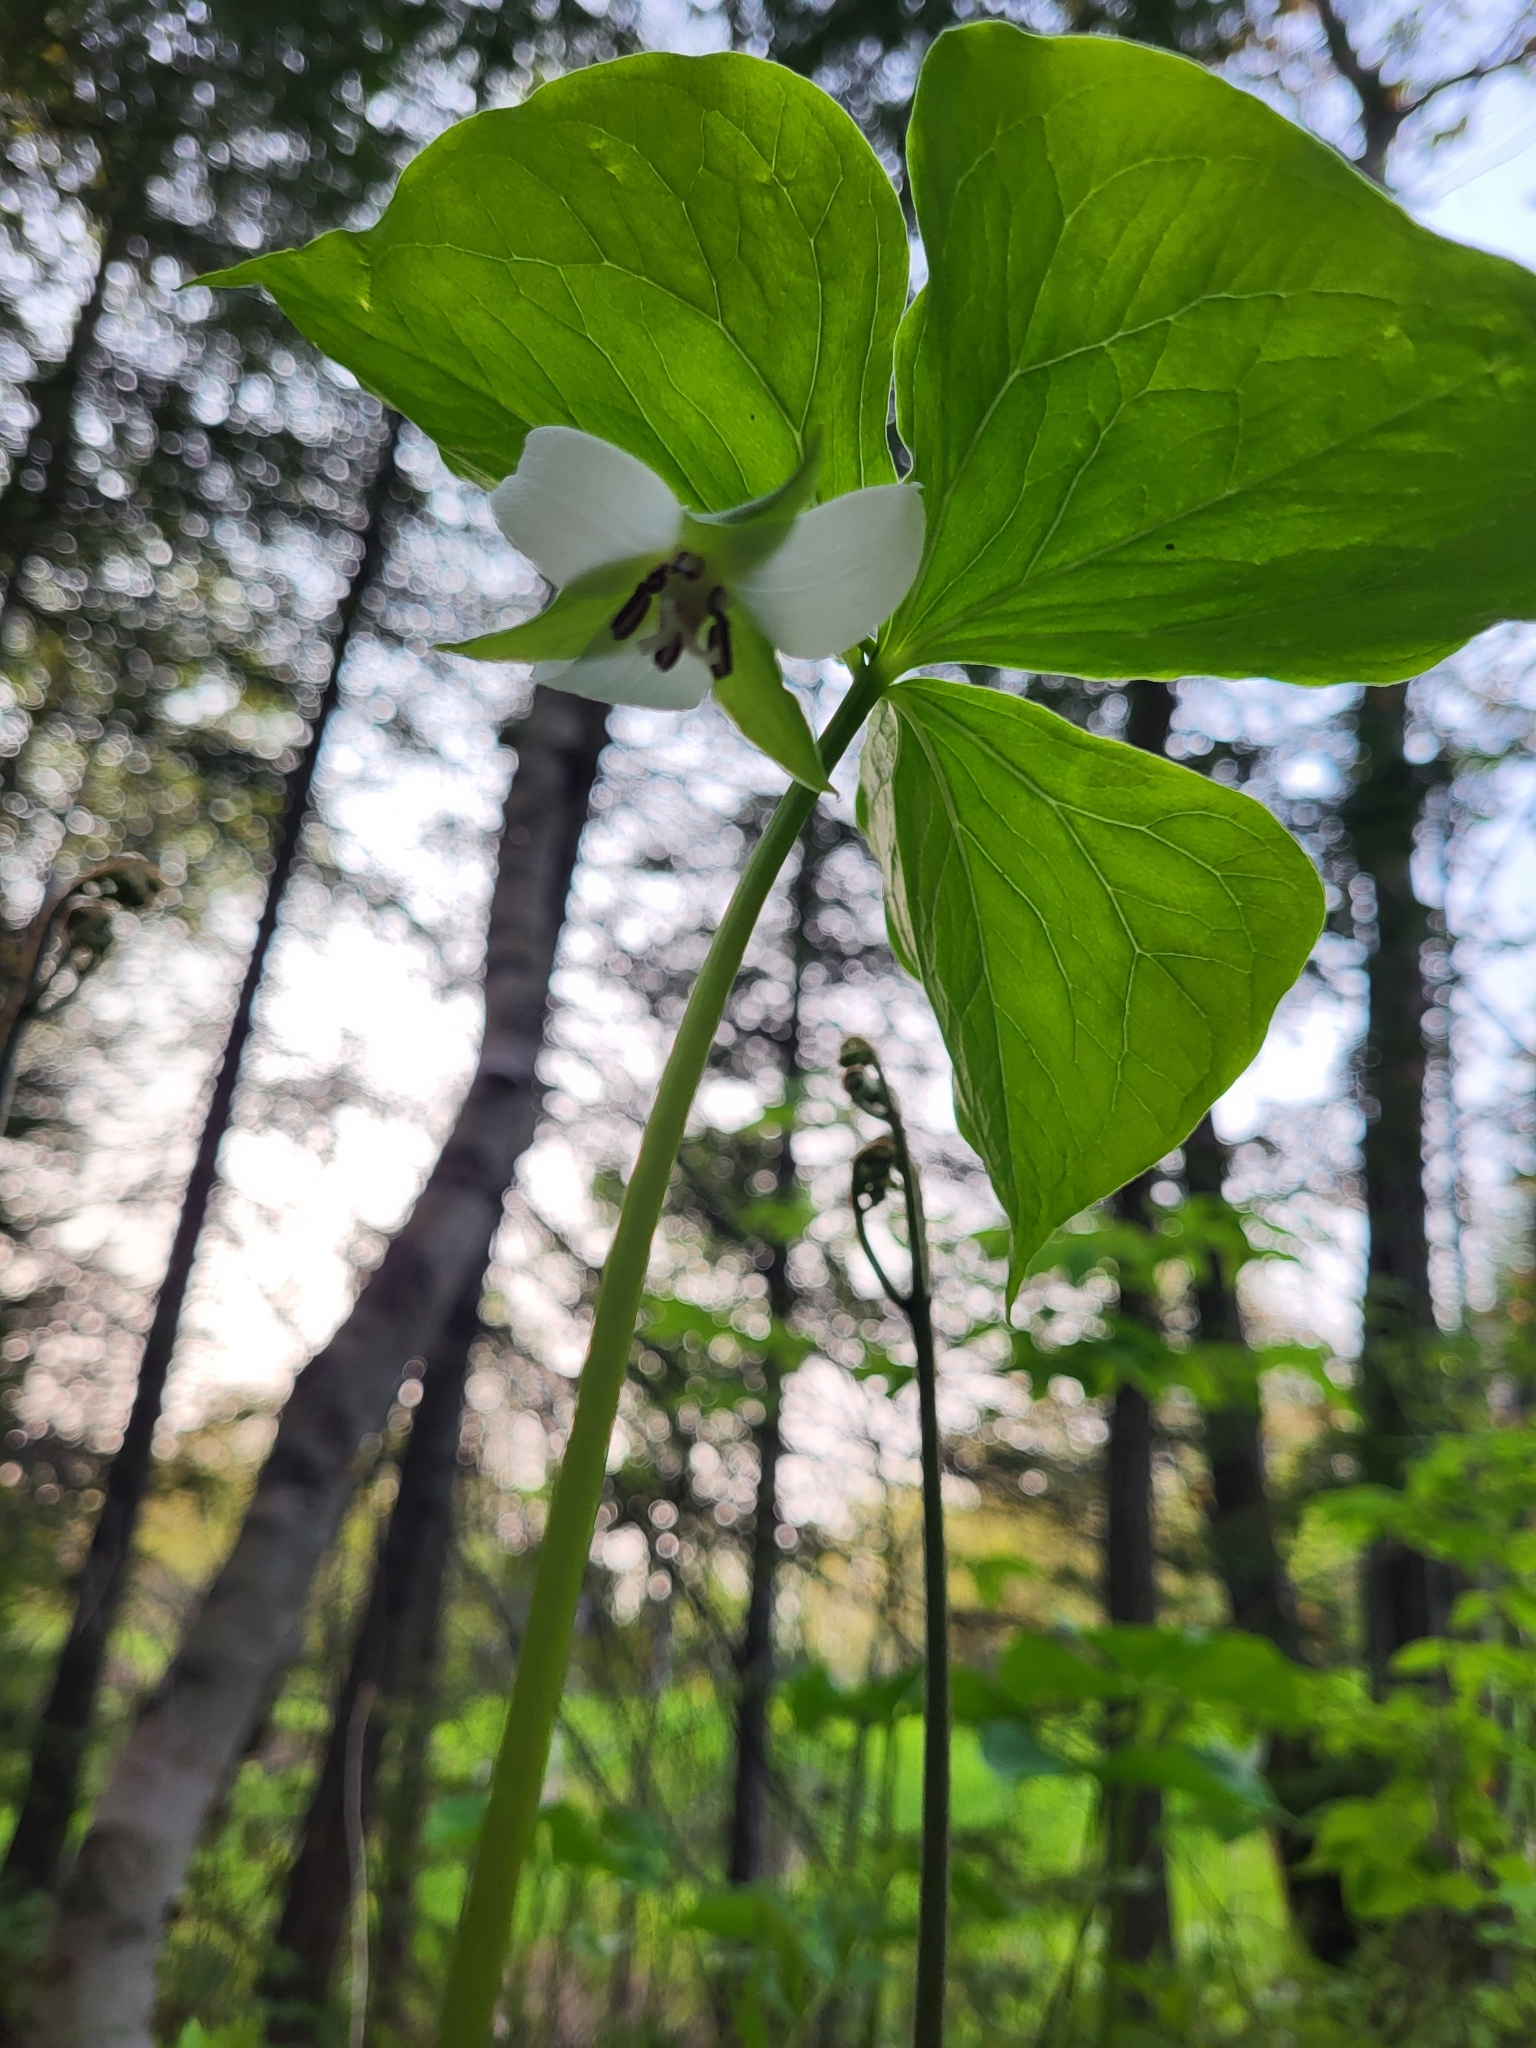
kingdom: Plantae
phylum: Tracheophyta
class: Liliopsida
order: Liliales
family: Melanthiaceae
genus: Trillium
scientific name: Trillium cernuum
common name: Nodding trillium
